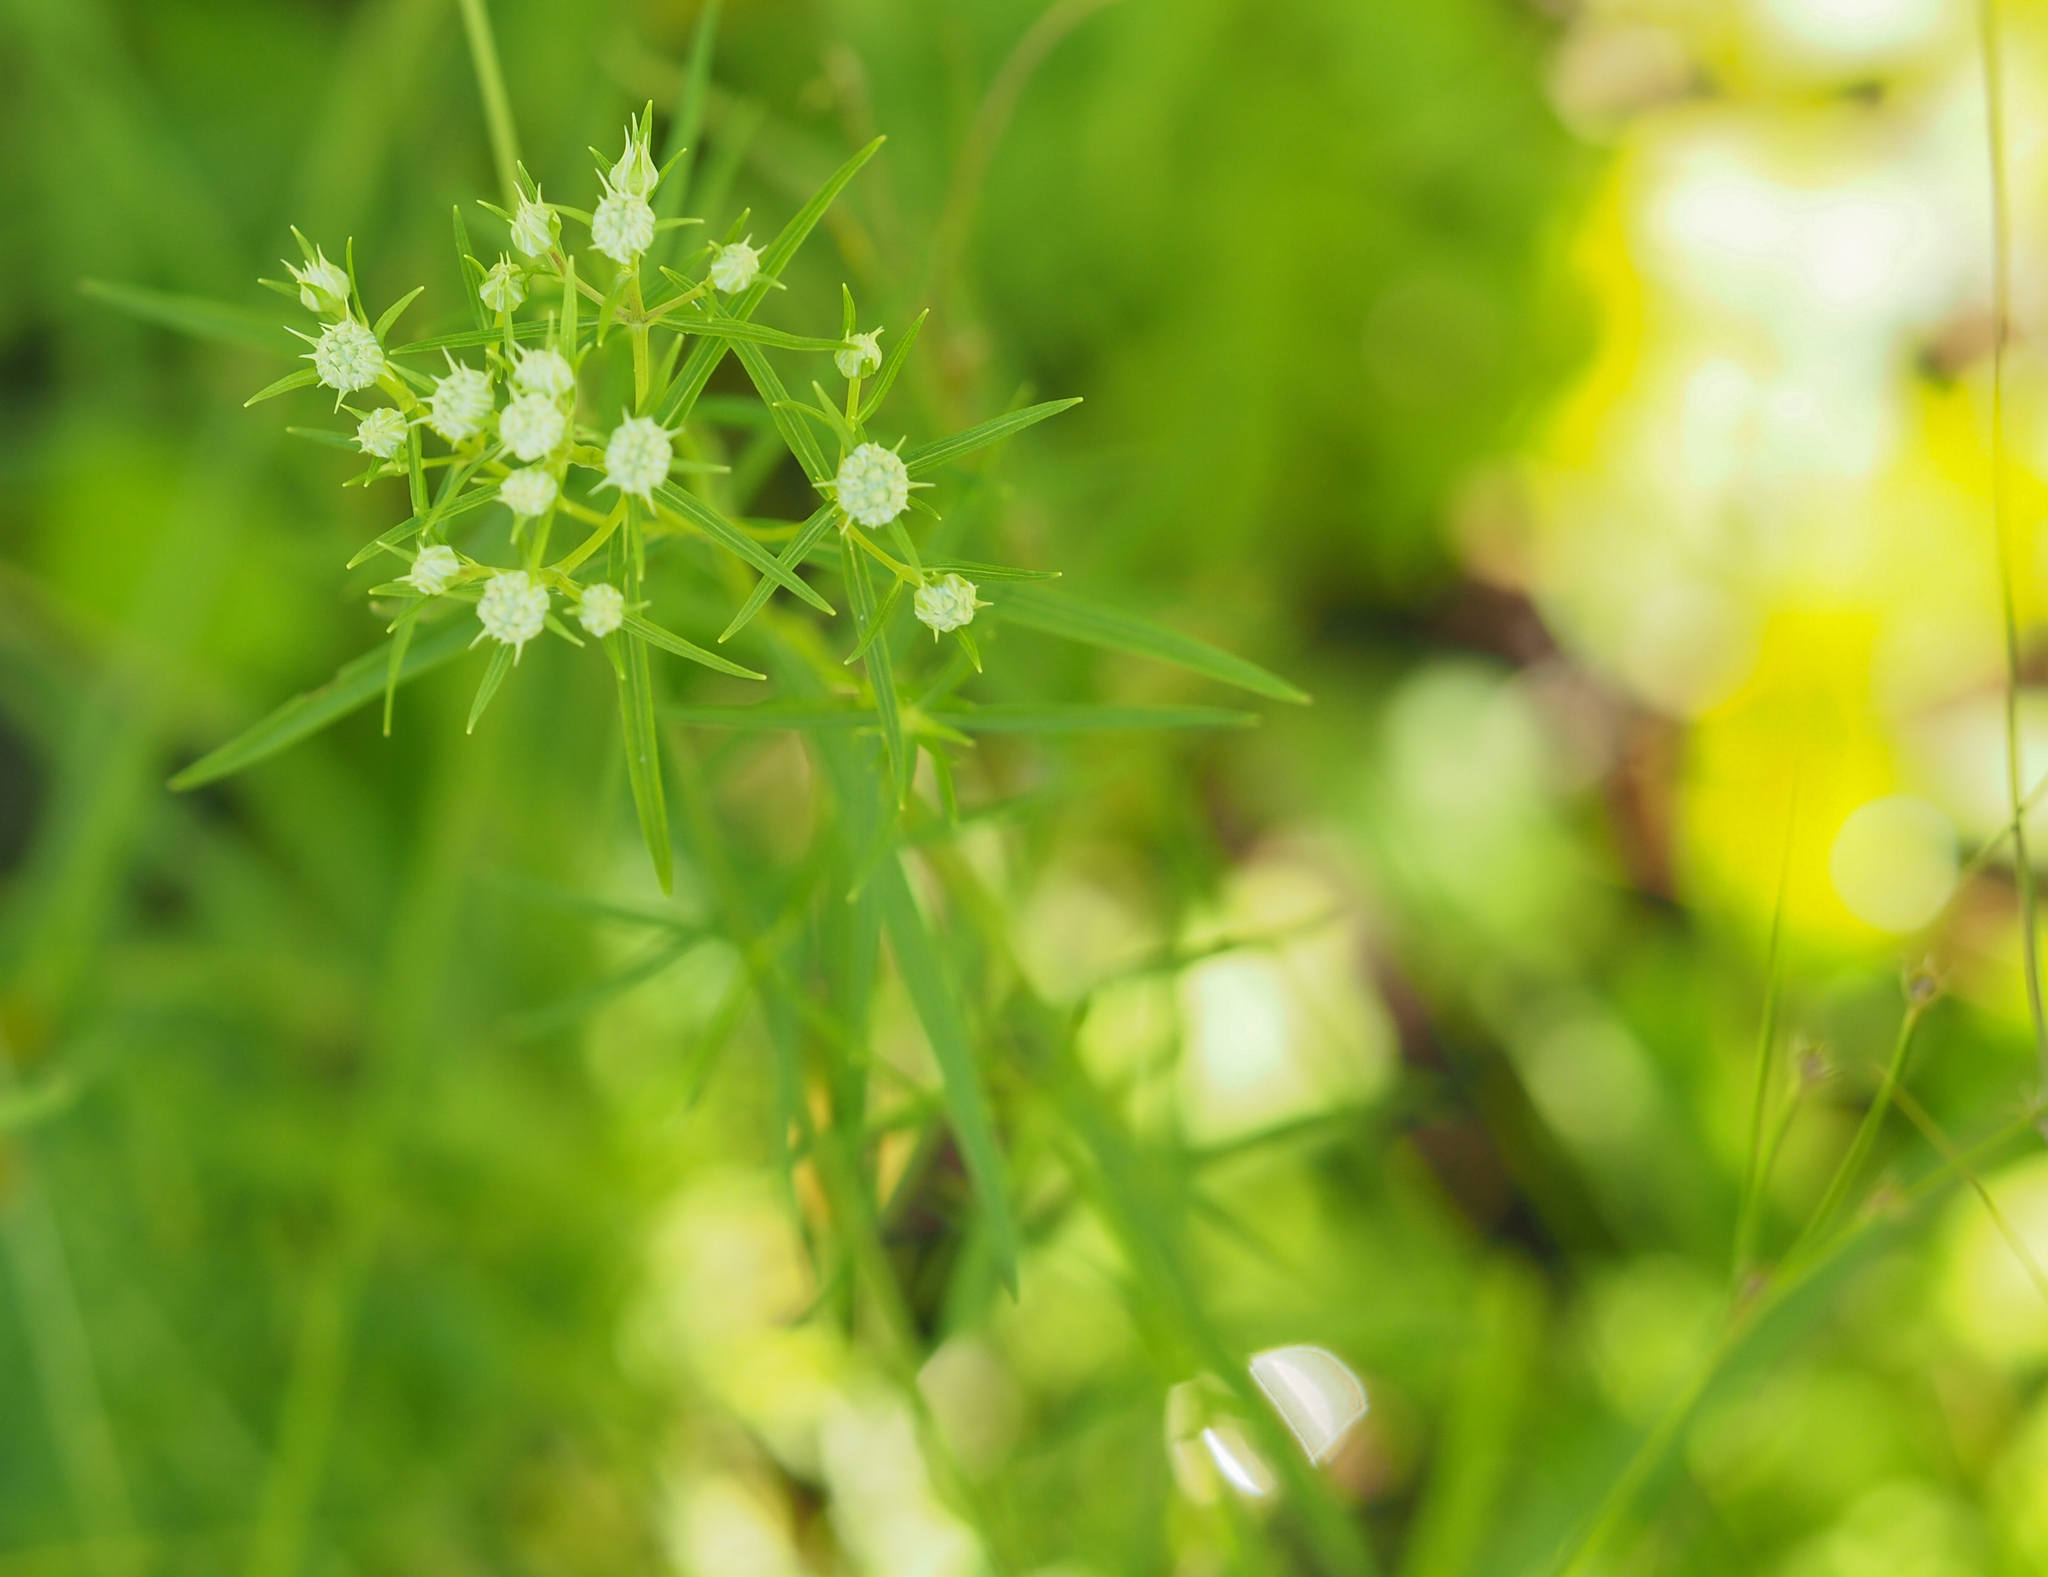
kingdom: Plantae
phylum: Tracheophyta
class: Magnoliopsida
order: Lamiales
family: Lamiaceae
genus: Pycnanthemum
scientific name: Pycnanthemum tenuifolium
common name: Narrow-leaf mountain-mint
